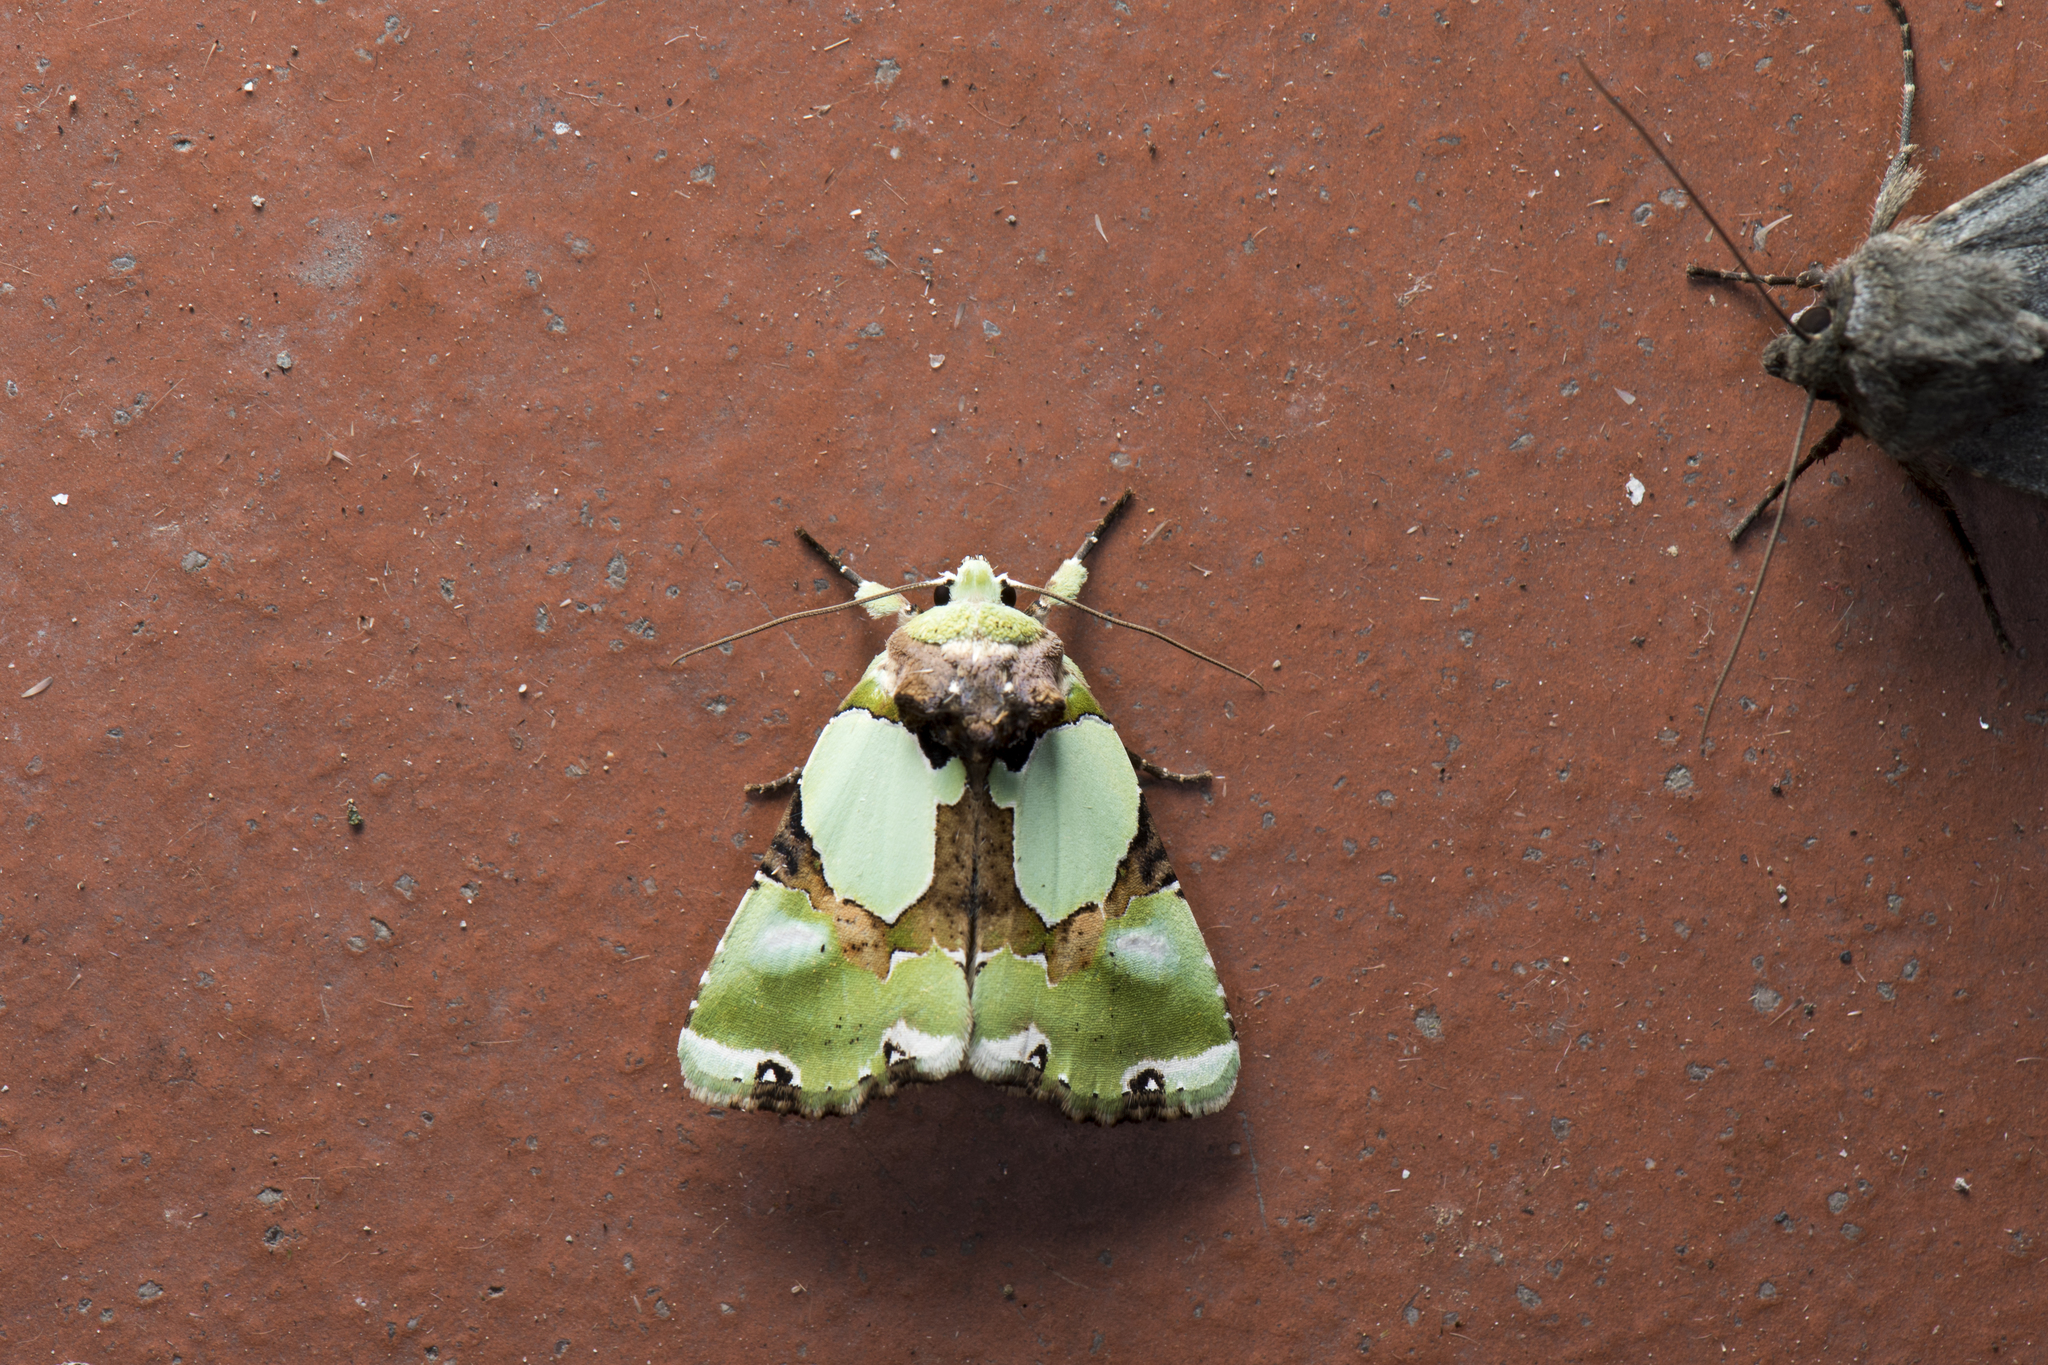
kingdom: Animalia
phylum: Arthropoda
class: Insecta
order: Lepidoptera
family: Noctuidae
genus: Nacna
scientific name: Nacna splendens
